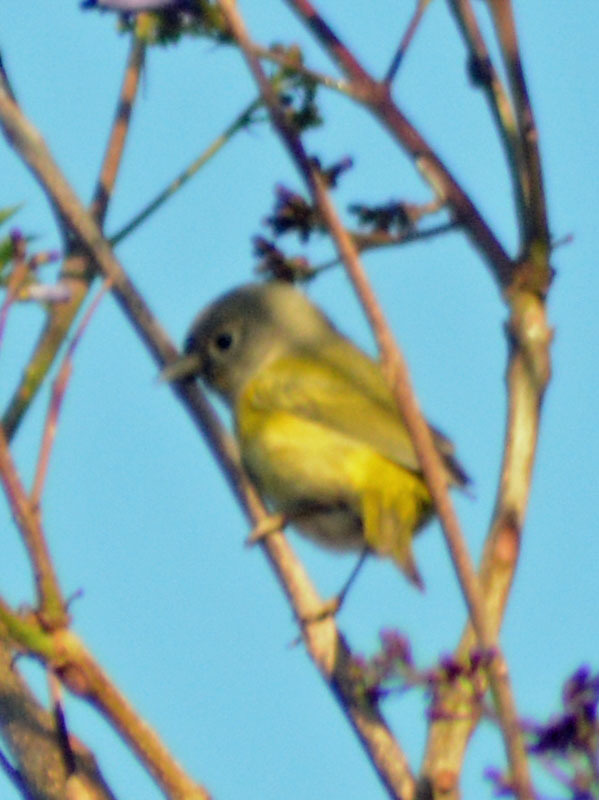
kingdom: Animalia
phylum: Chordata
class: Aves
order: Passeriformes
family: Parulidae
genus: Leiothlypis
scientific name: Leiothlypis ruficapilla
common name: Nashville warbler
